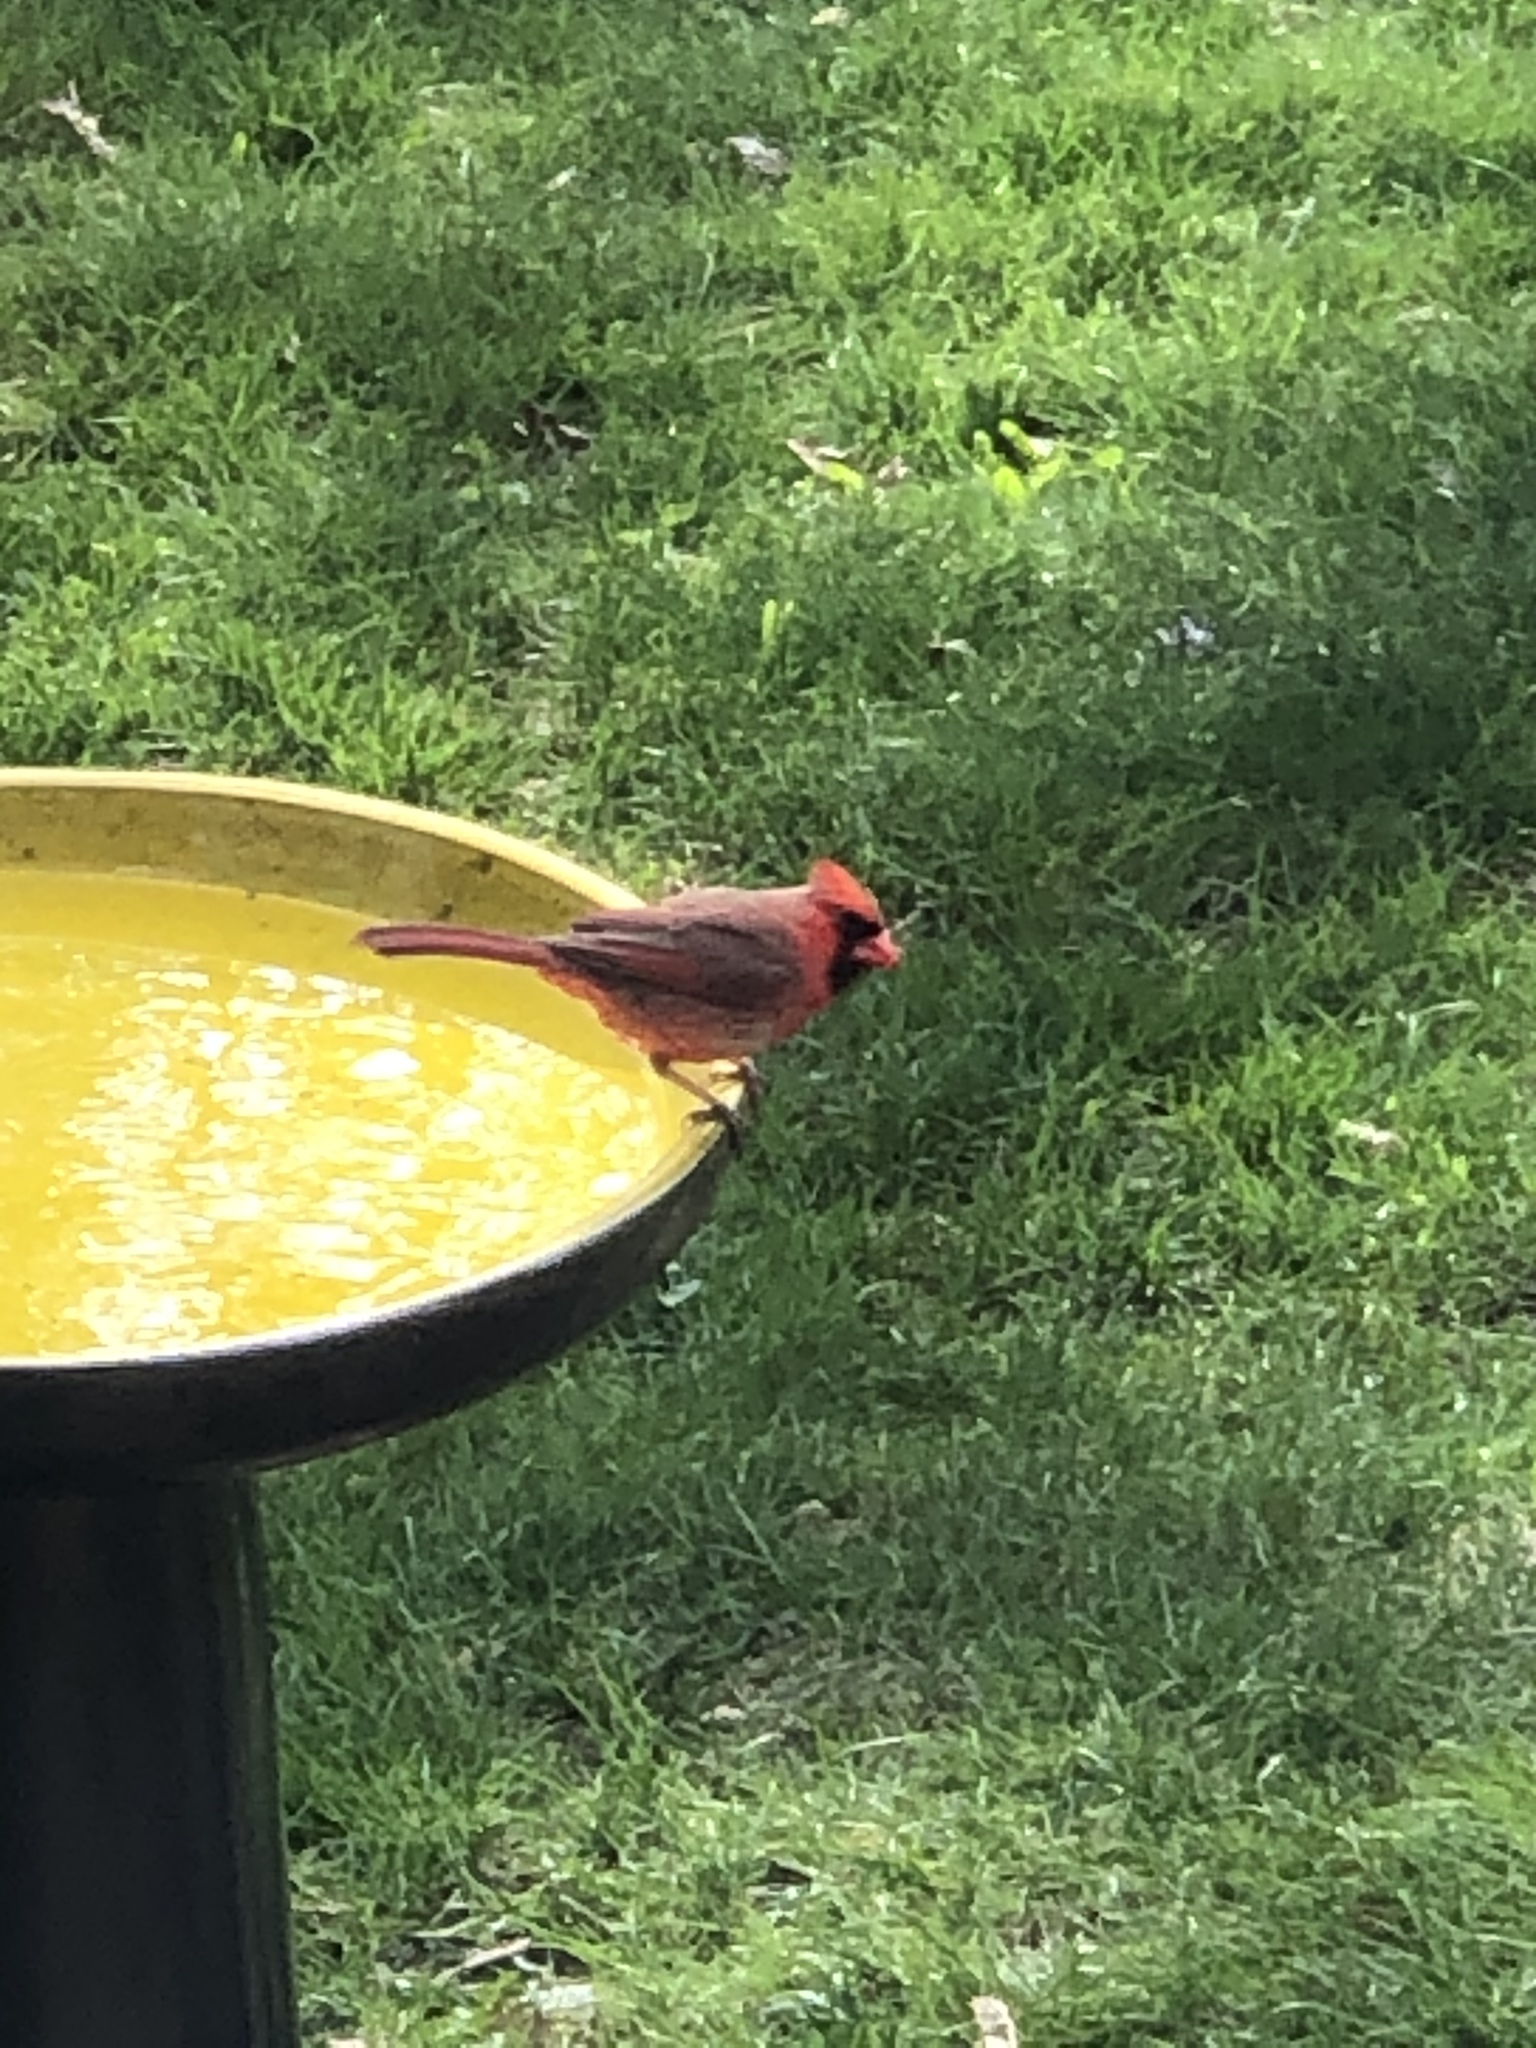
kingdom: Animalia
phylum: Chordata
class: Aves
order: Passeriformes
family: Cardinalidae
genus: Cardinalis
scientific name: Cardinalis cardinalis
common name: Northern cardinal
